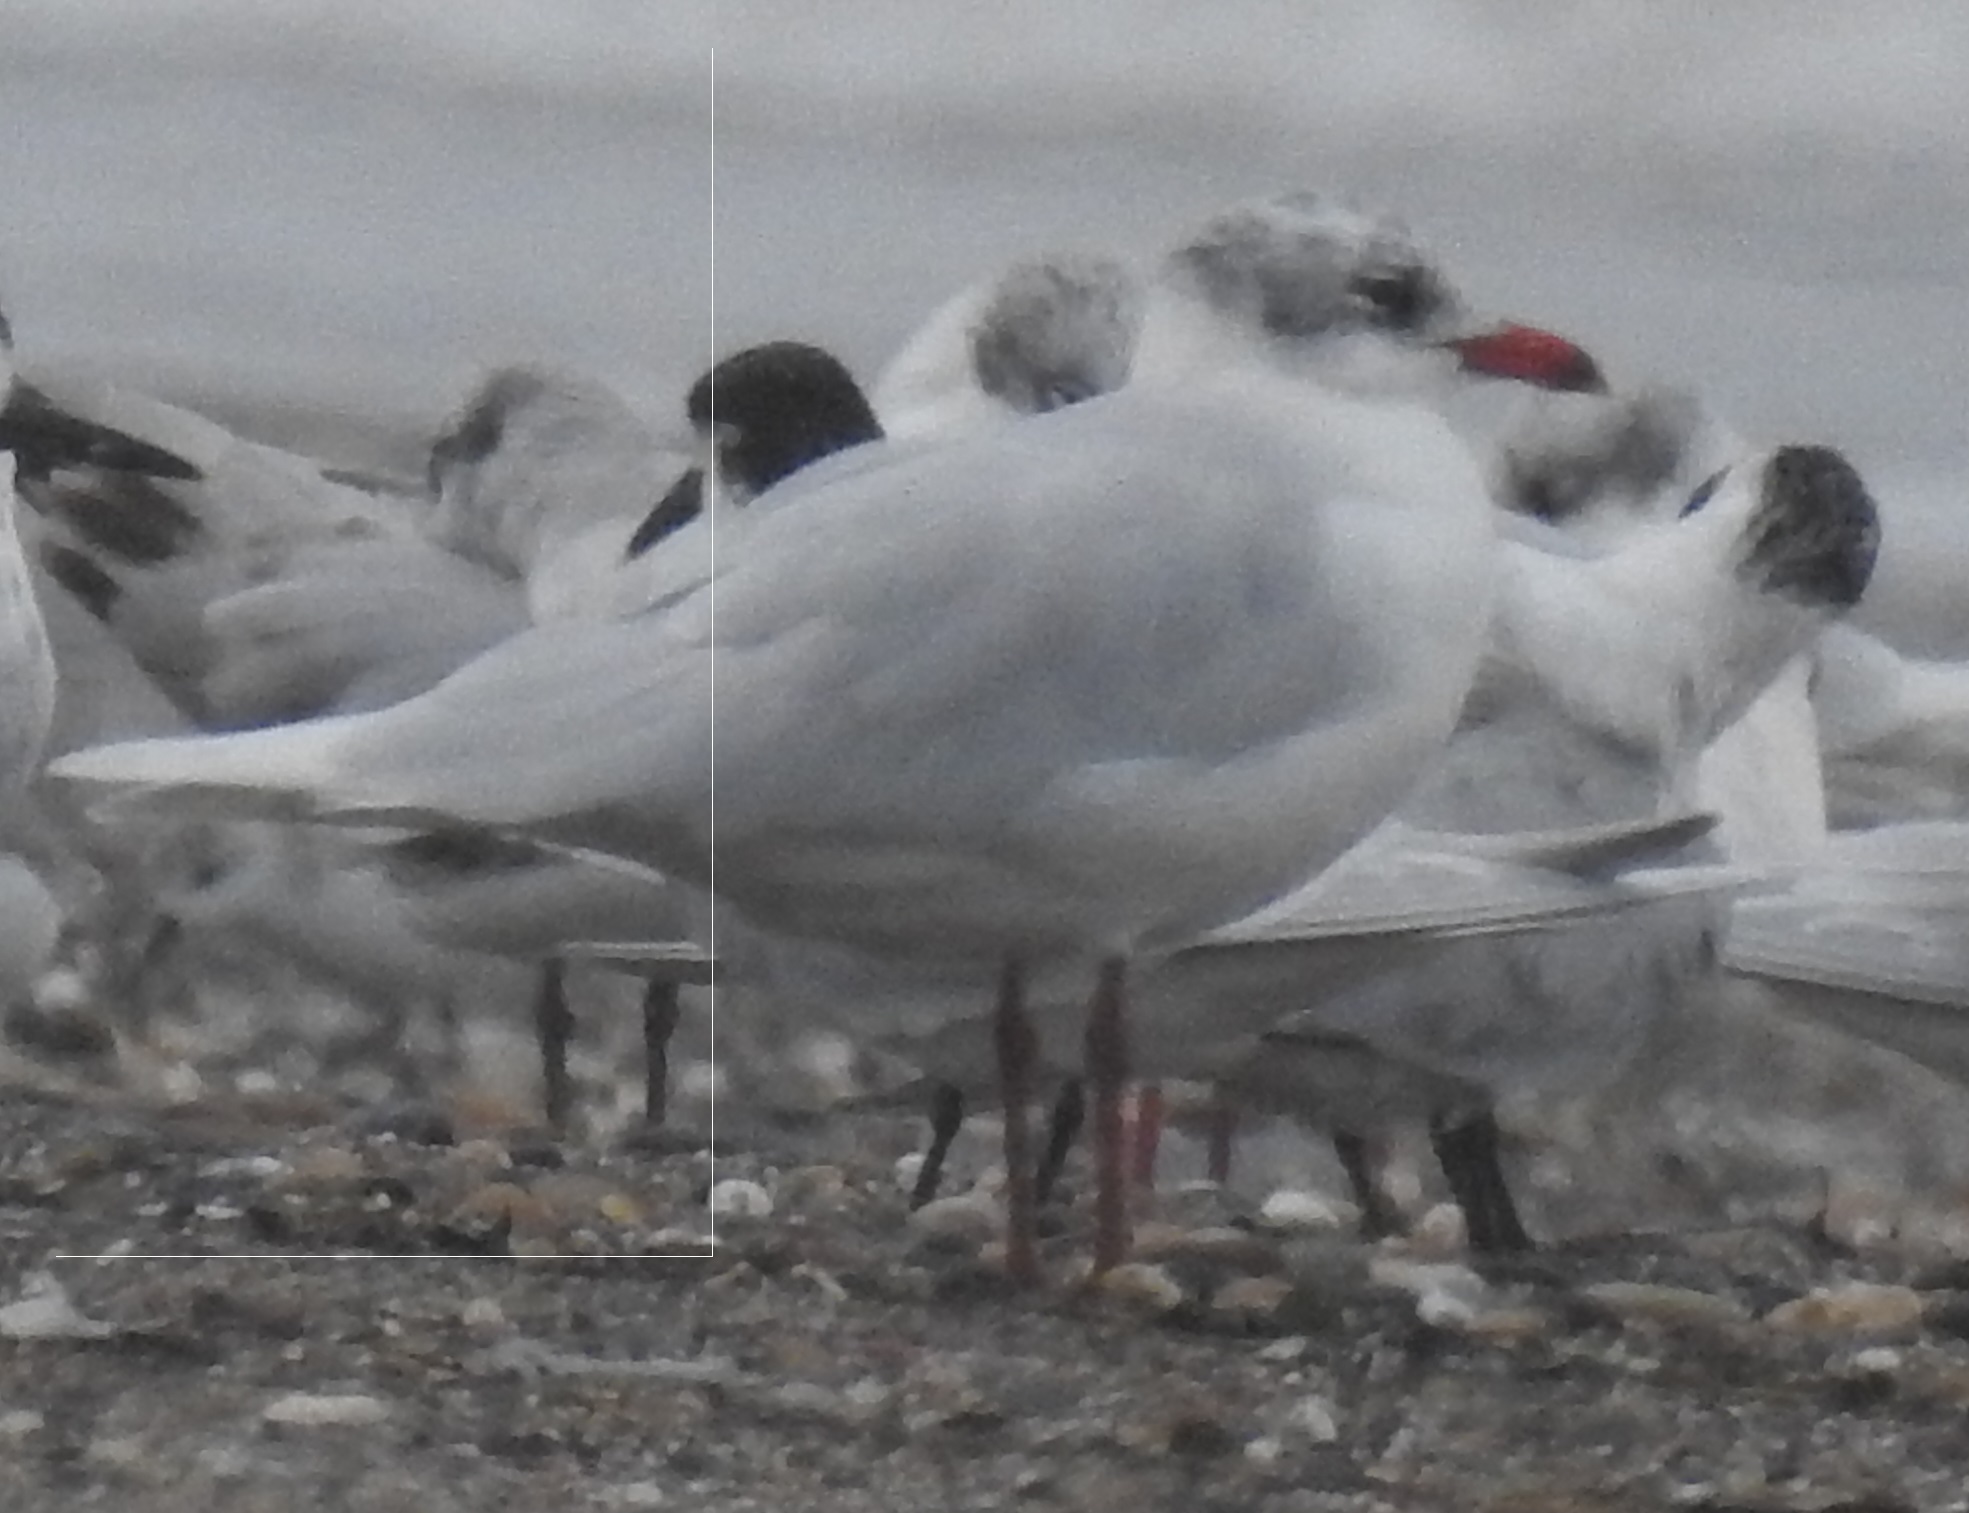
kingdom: Animalia
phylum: Chordata
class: Aves
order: Charadriiformes
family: Laridae
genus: Ichthyaetus
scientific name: Ichthyaetus melanocephalus
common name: Mediterranean gull
